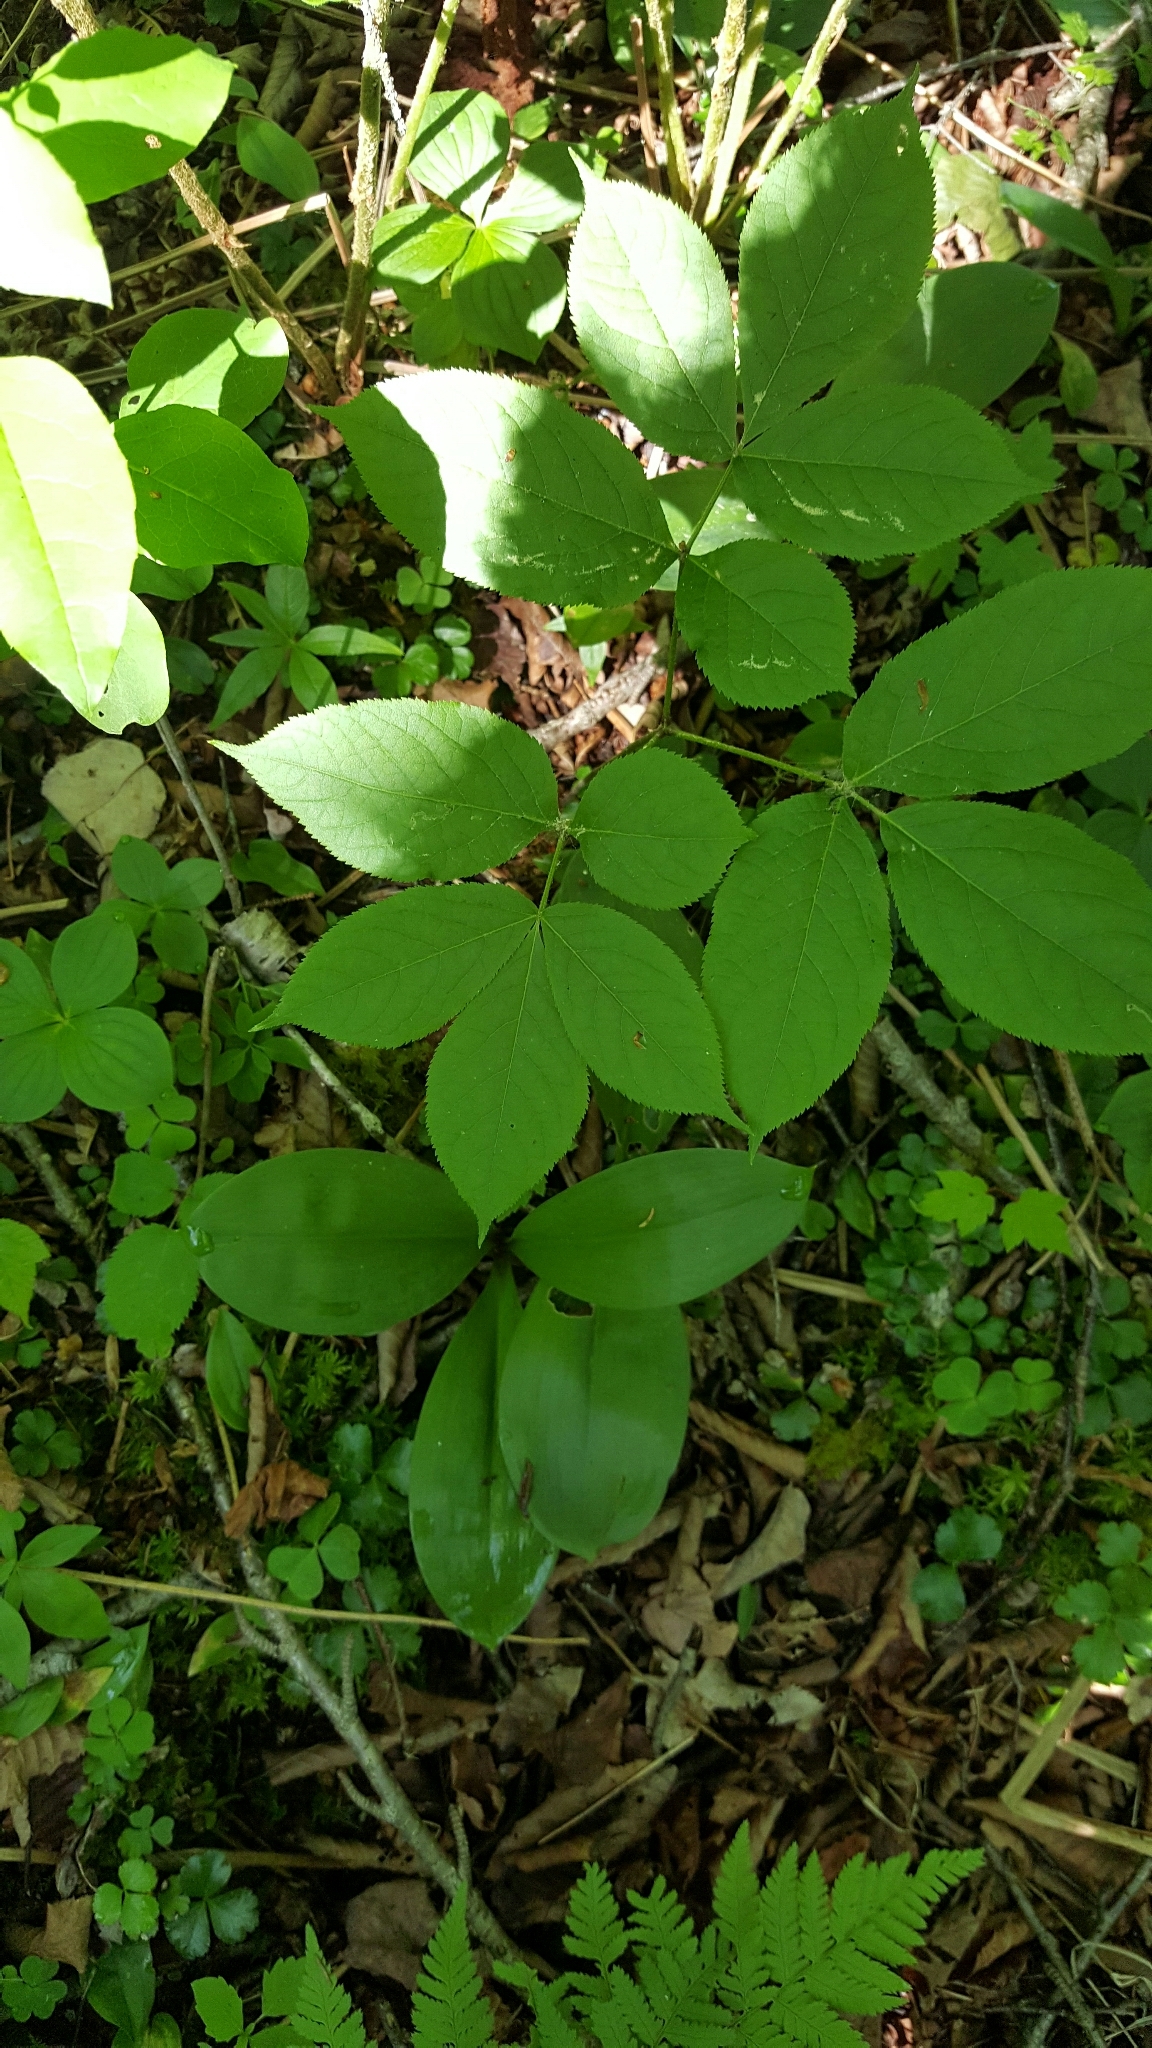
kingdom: Plantae
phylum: Tracheophyta
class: Magnoliopsida
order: Apiales
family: Araliaceae
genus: Aralia
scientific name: Aralia nudicaulis
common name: Wild sarsaparilla
